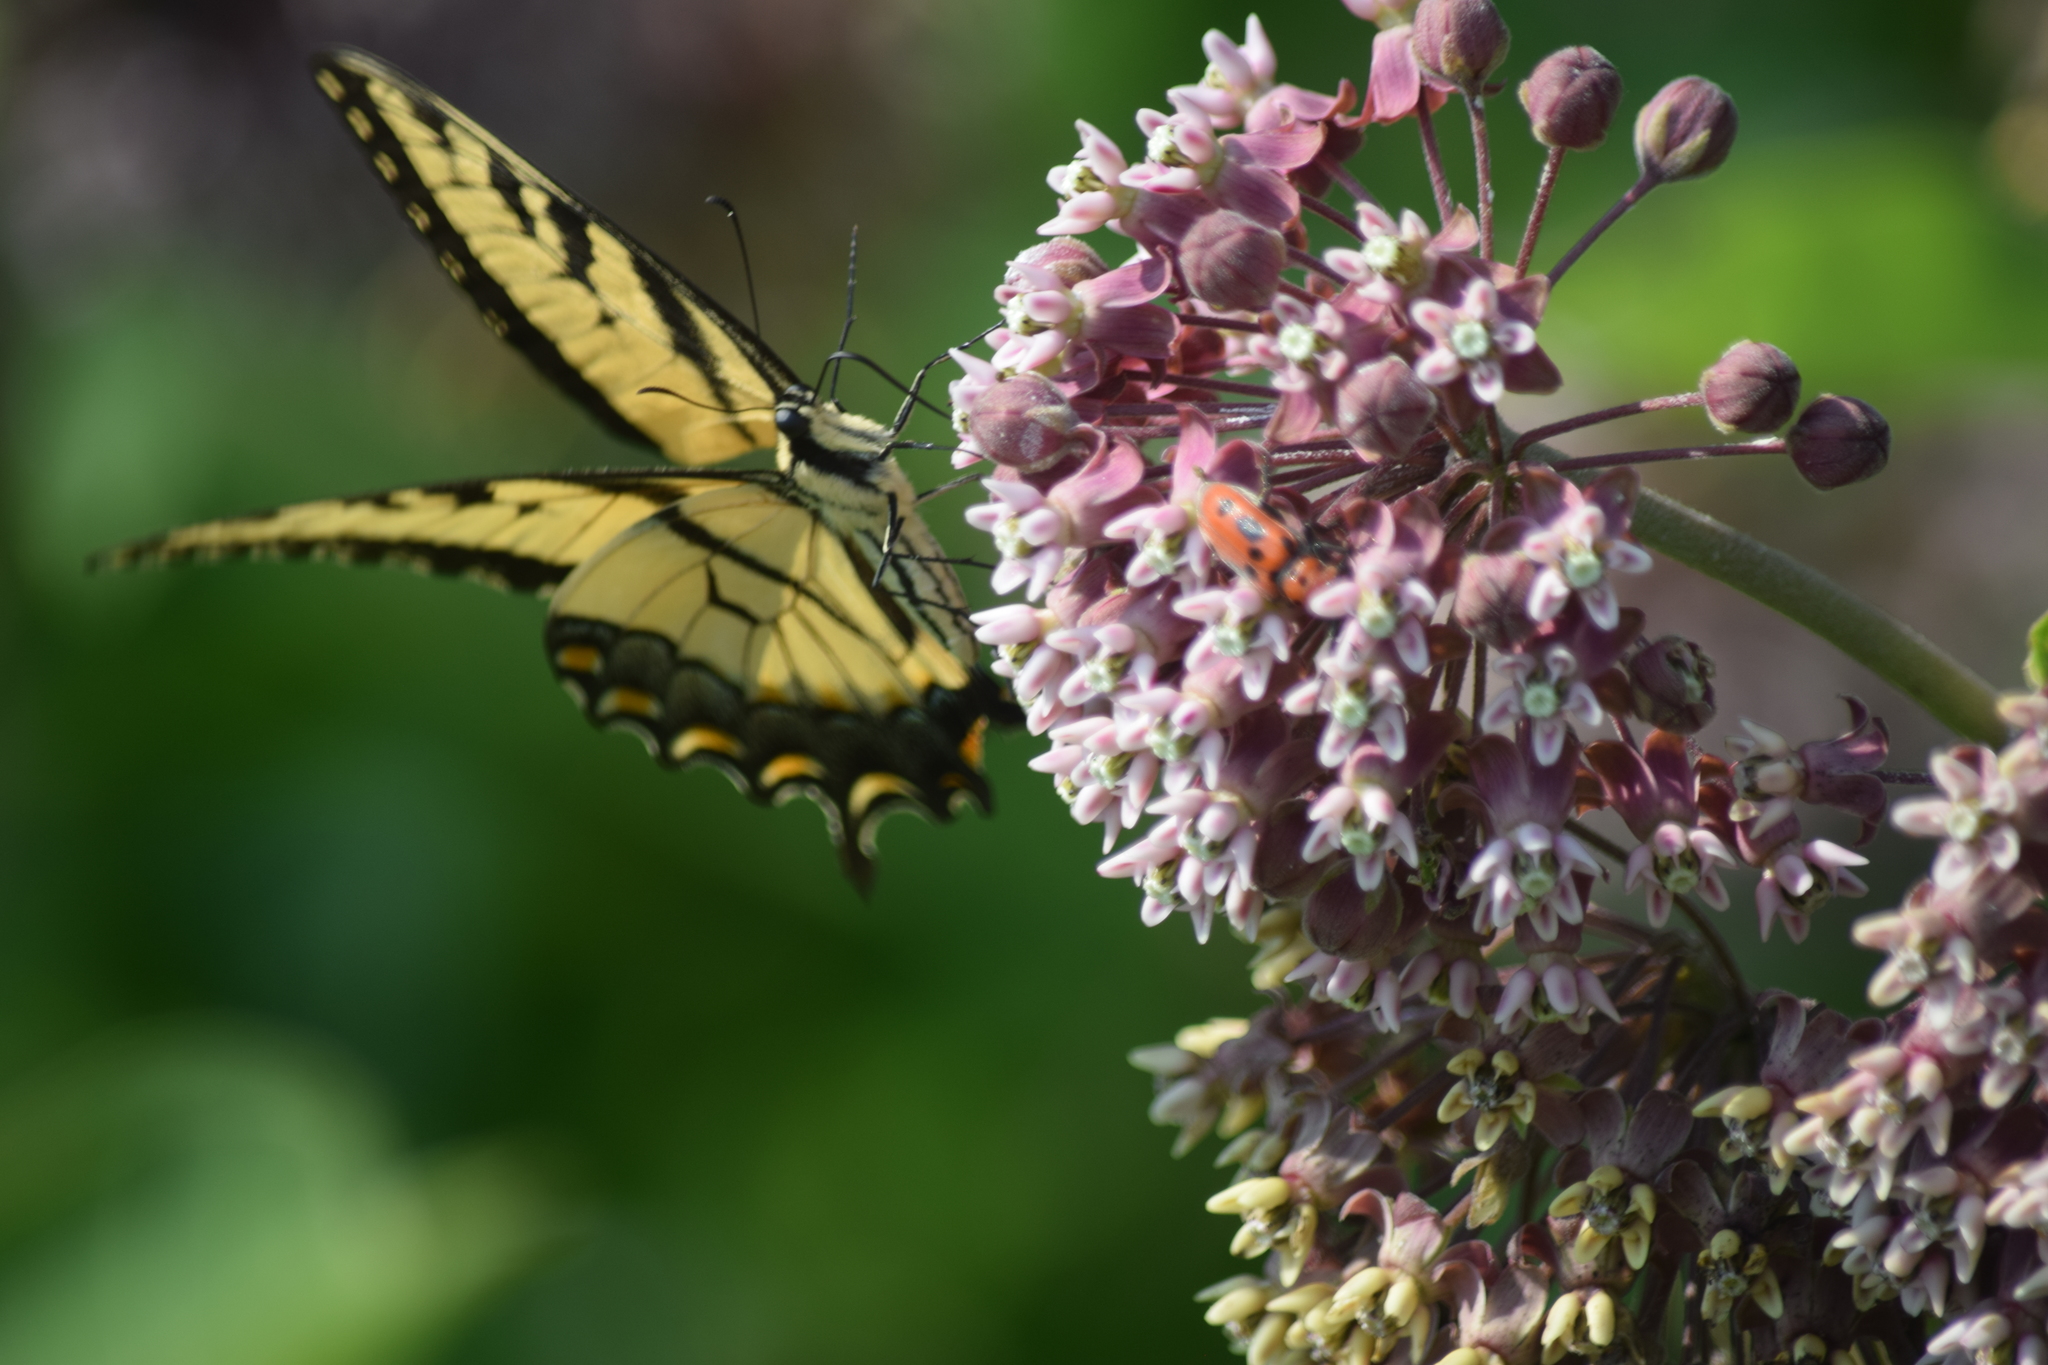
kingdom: Animalia
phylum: Arthropoda
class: Insecta
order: Lepidoptera
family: Papilionidae
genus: Papilio
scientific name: Papilio glaucus
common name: Tiger swallowtail
